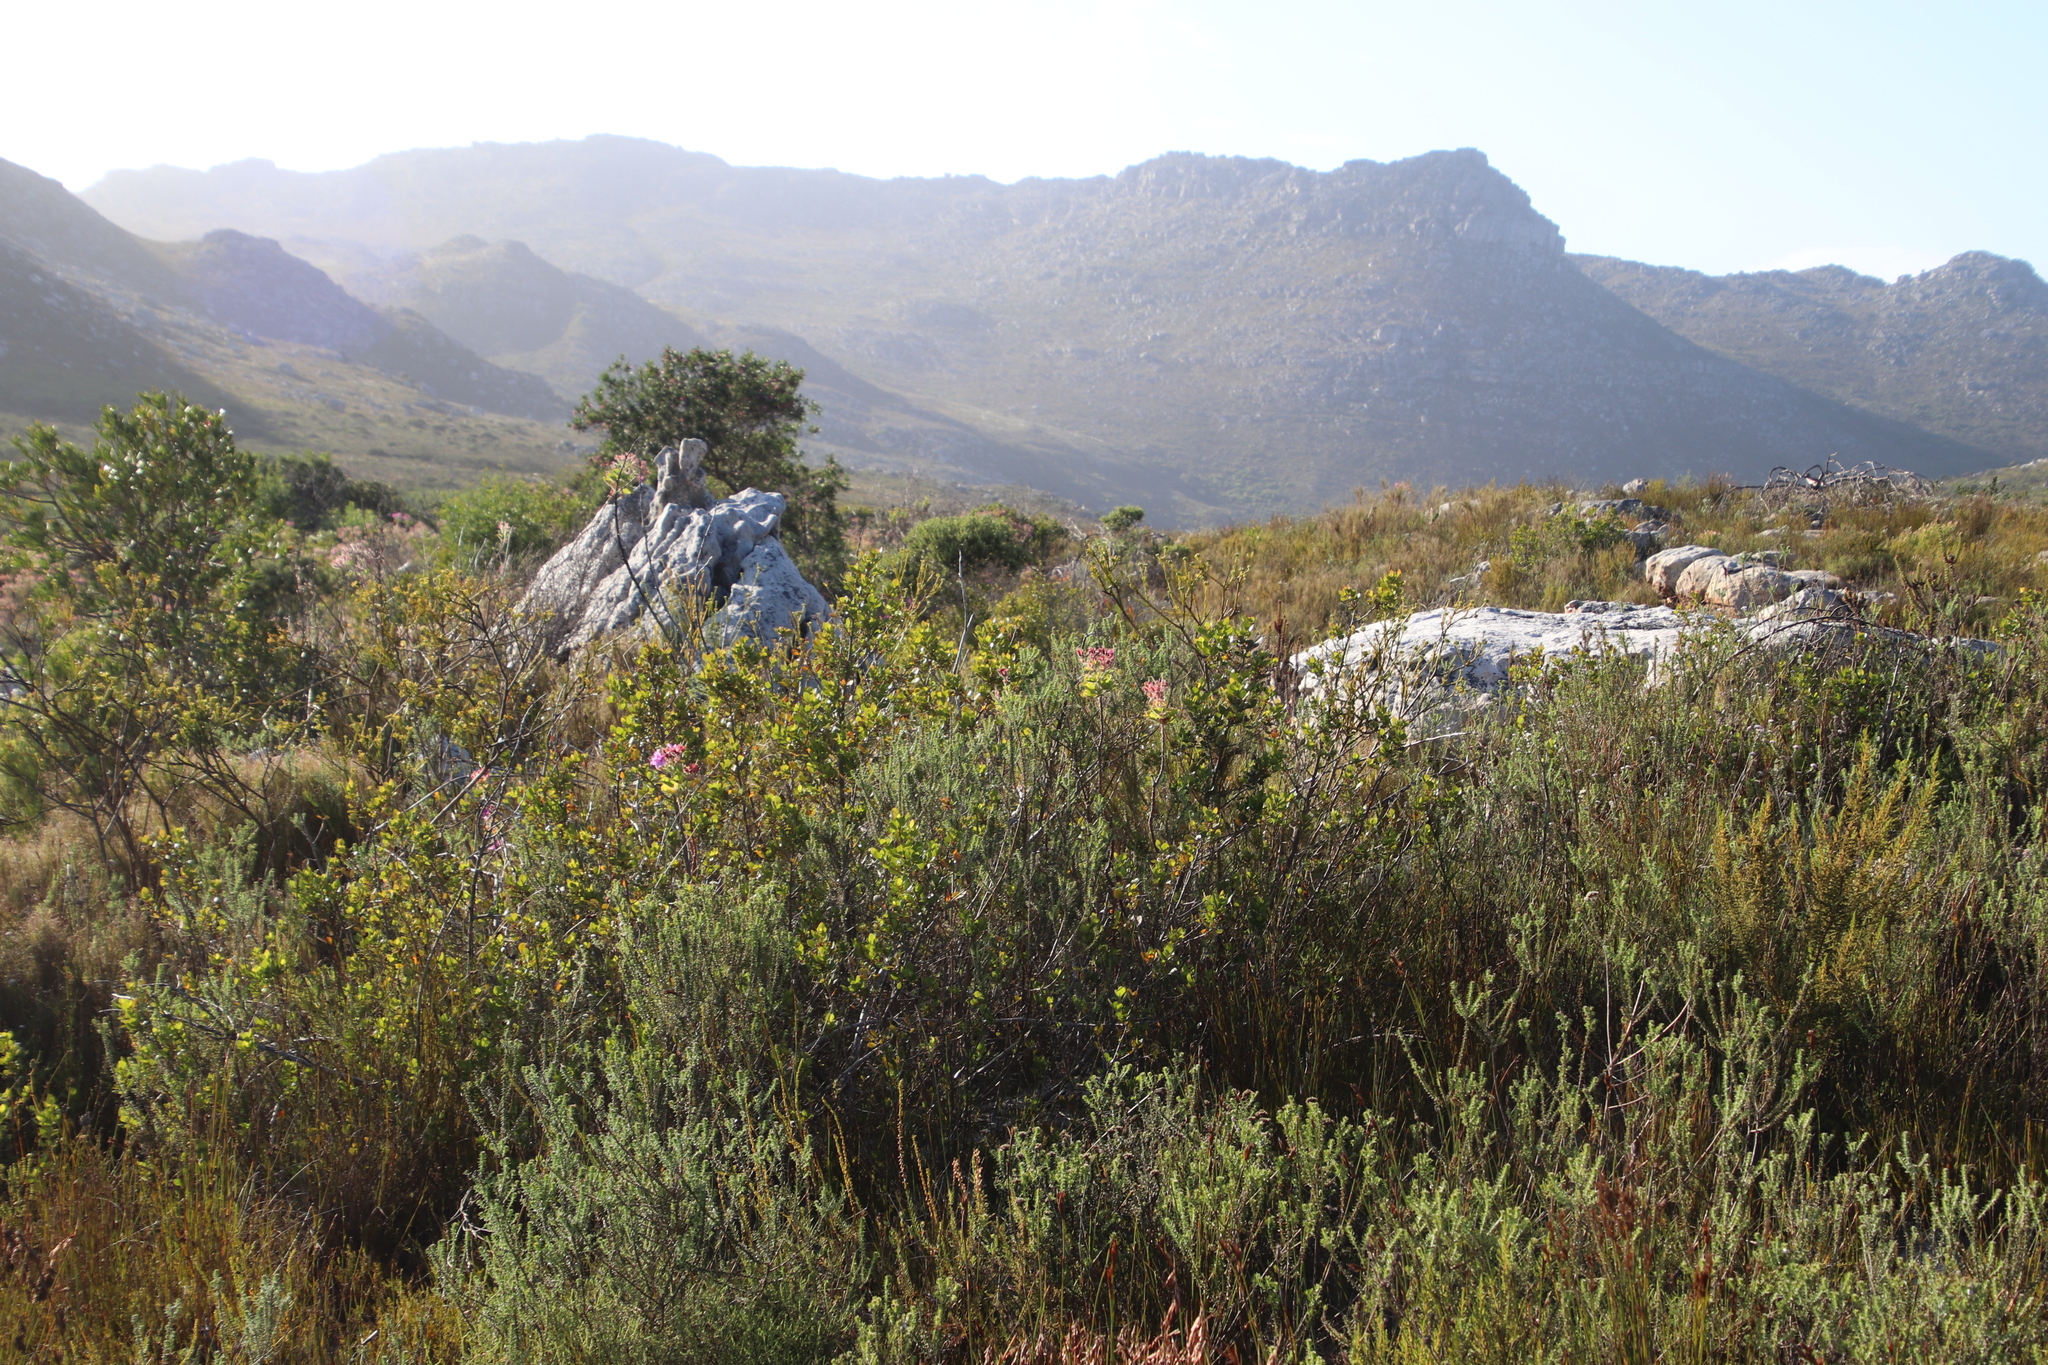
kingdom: Plantae
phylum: Tracheophyta
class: Magnoliopsida
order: Geraniales
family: Geraniaceae
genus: Pelargonium
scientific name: Pelargonium cucullatum
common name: Tree pelargonium
